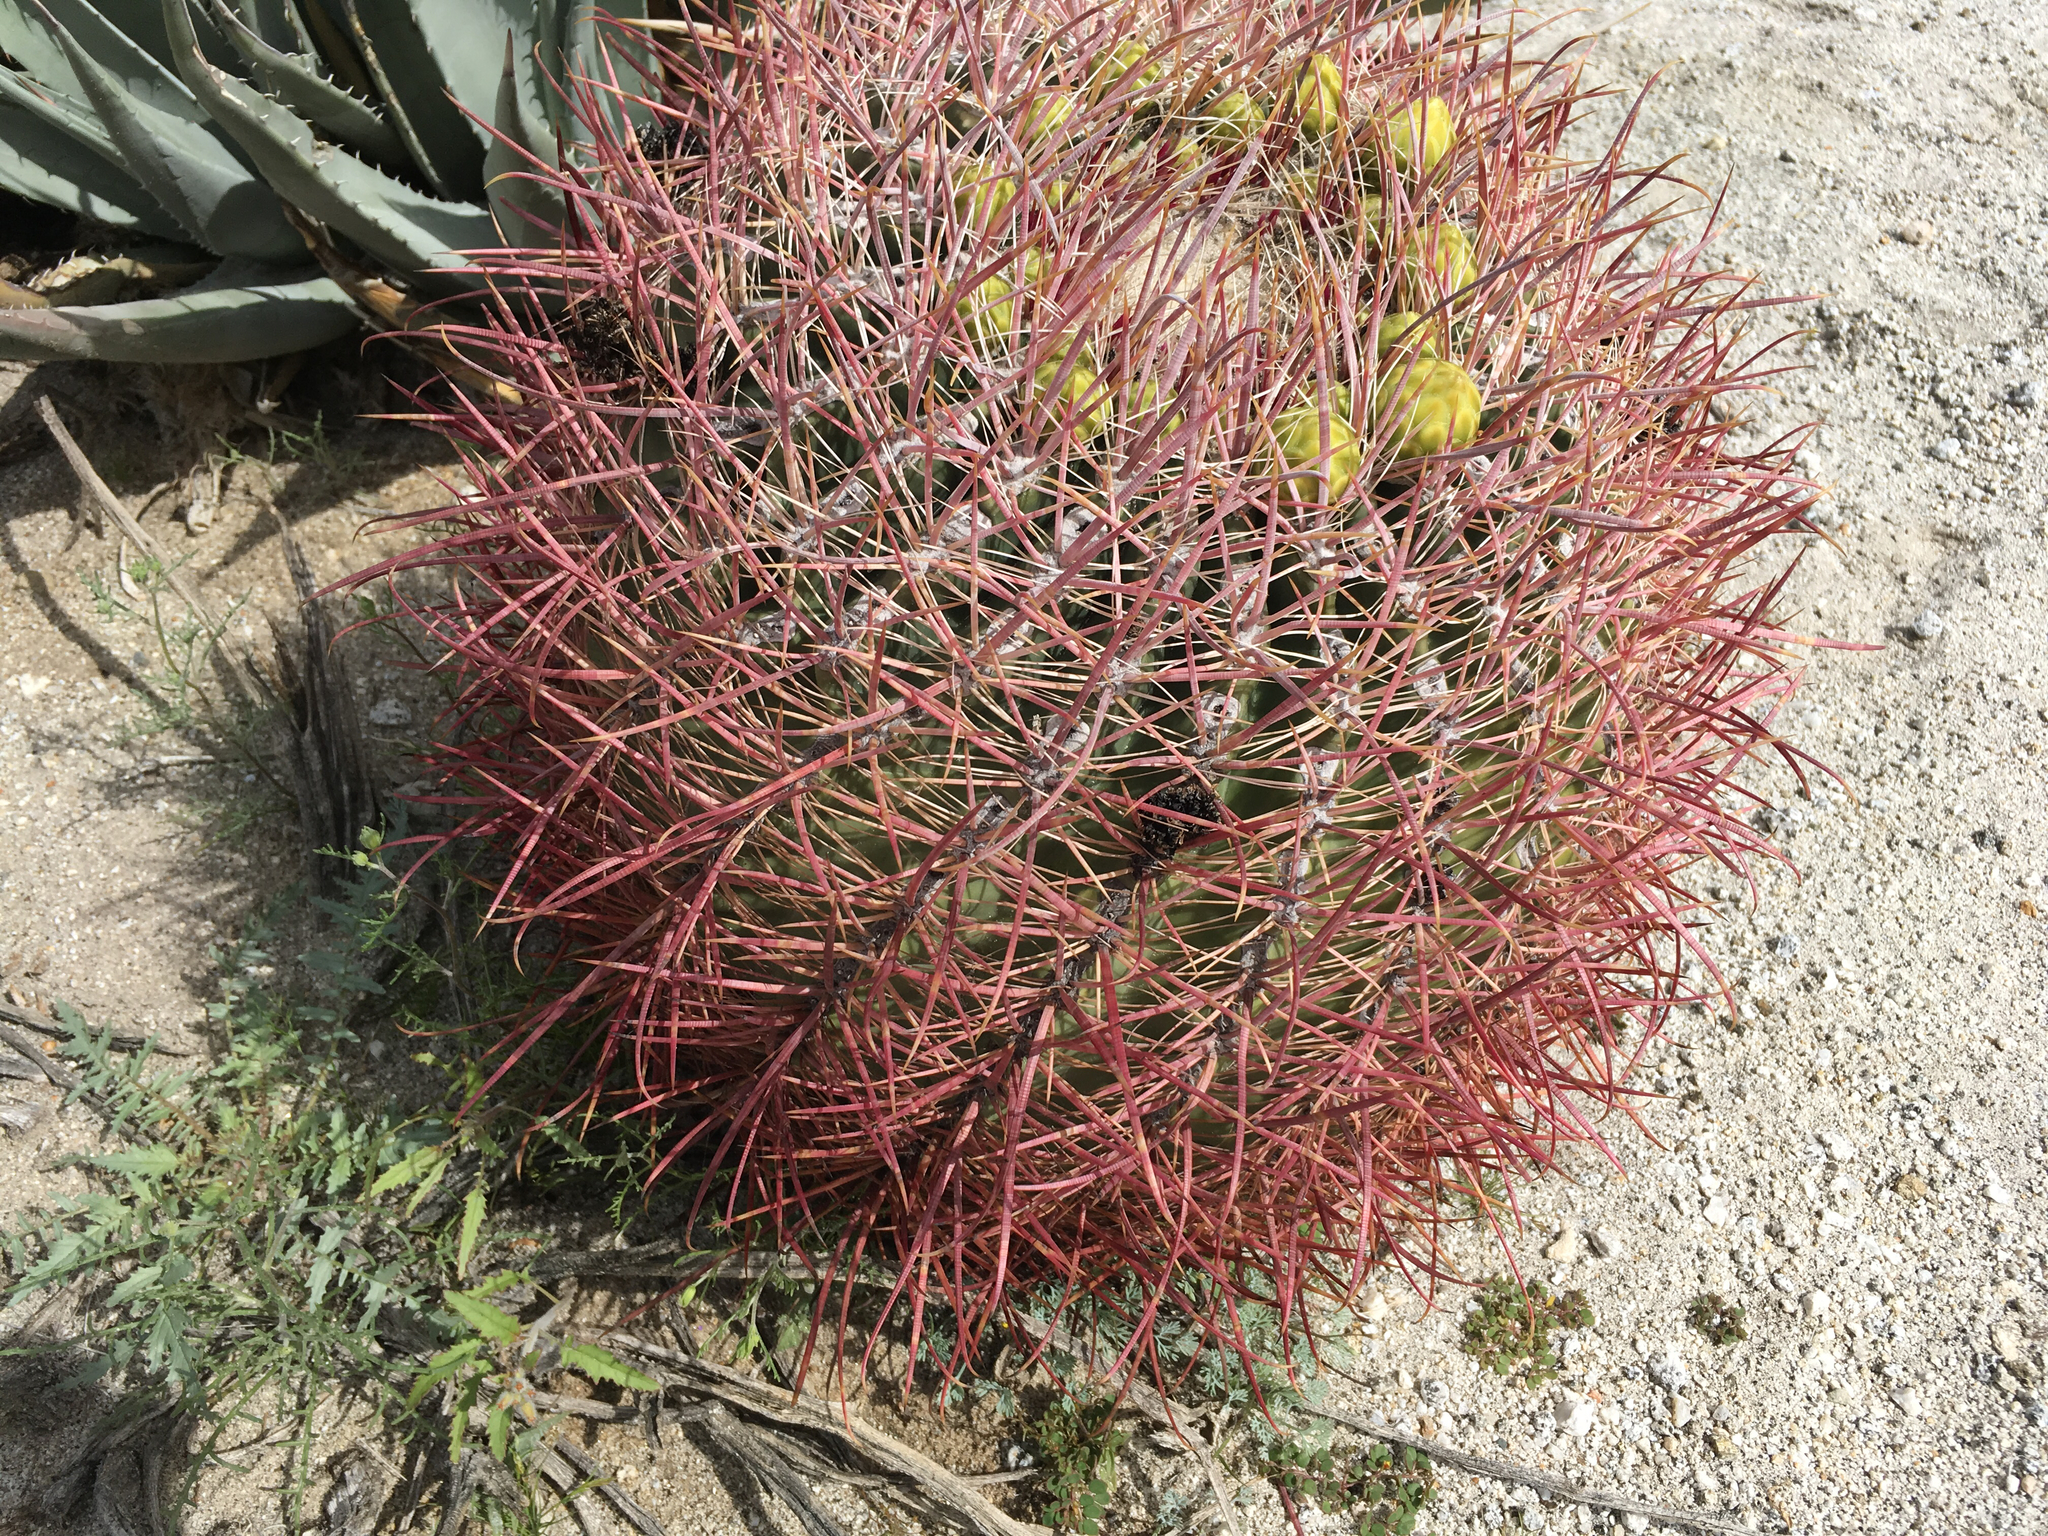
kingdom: Plantae
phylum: Tracheophyta
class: Magnoliopsida
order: Caryophyllales
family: Cactaceae
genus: Ferocactus
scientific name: Ferocactus cylindraceus
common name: California barrel cactus
